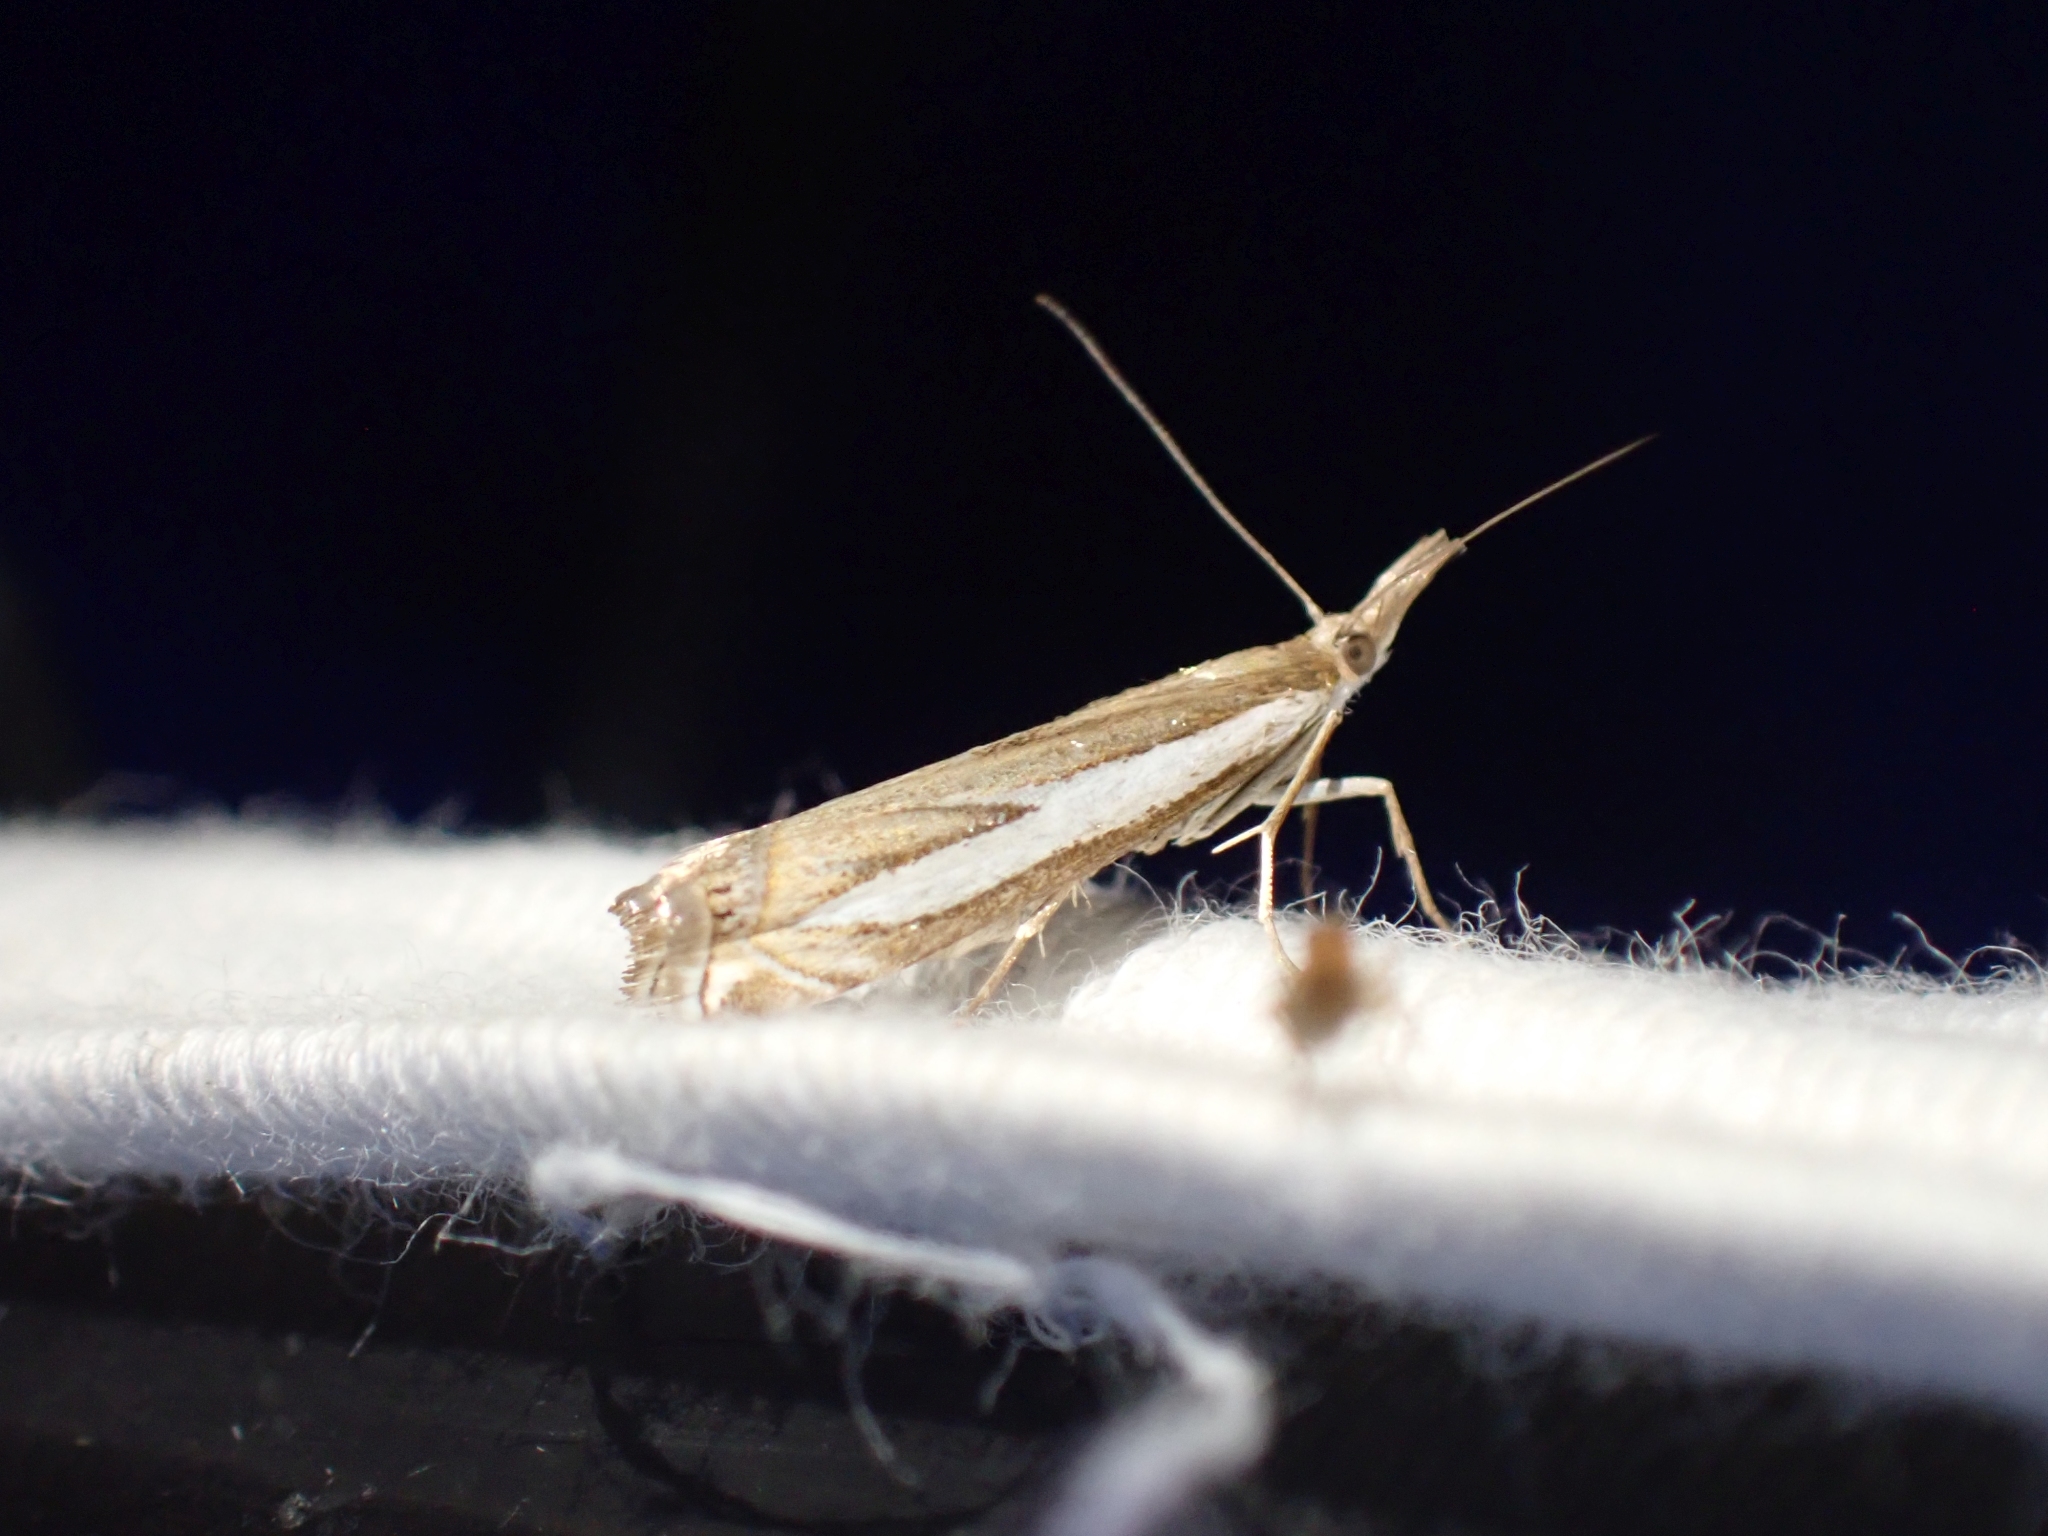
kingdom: Animalia
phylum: Arthropoda
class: Insecta
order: Lepidoptera
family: Crambidae
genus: Crambus
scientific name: Crambus hamella
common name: Dark grass-veneer
